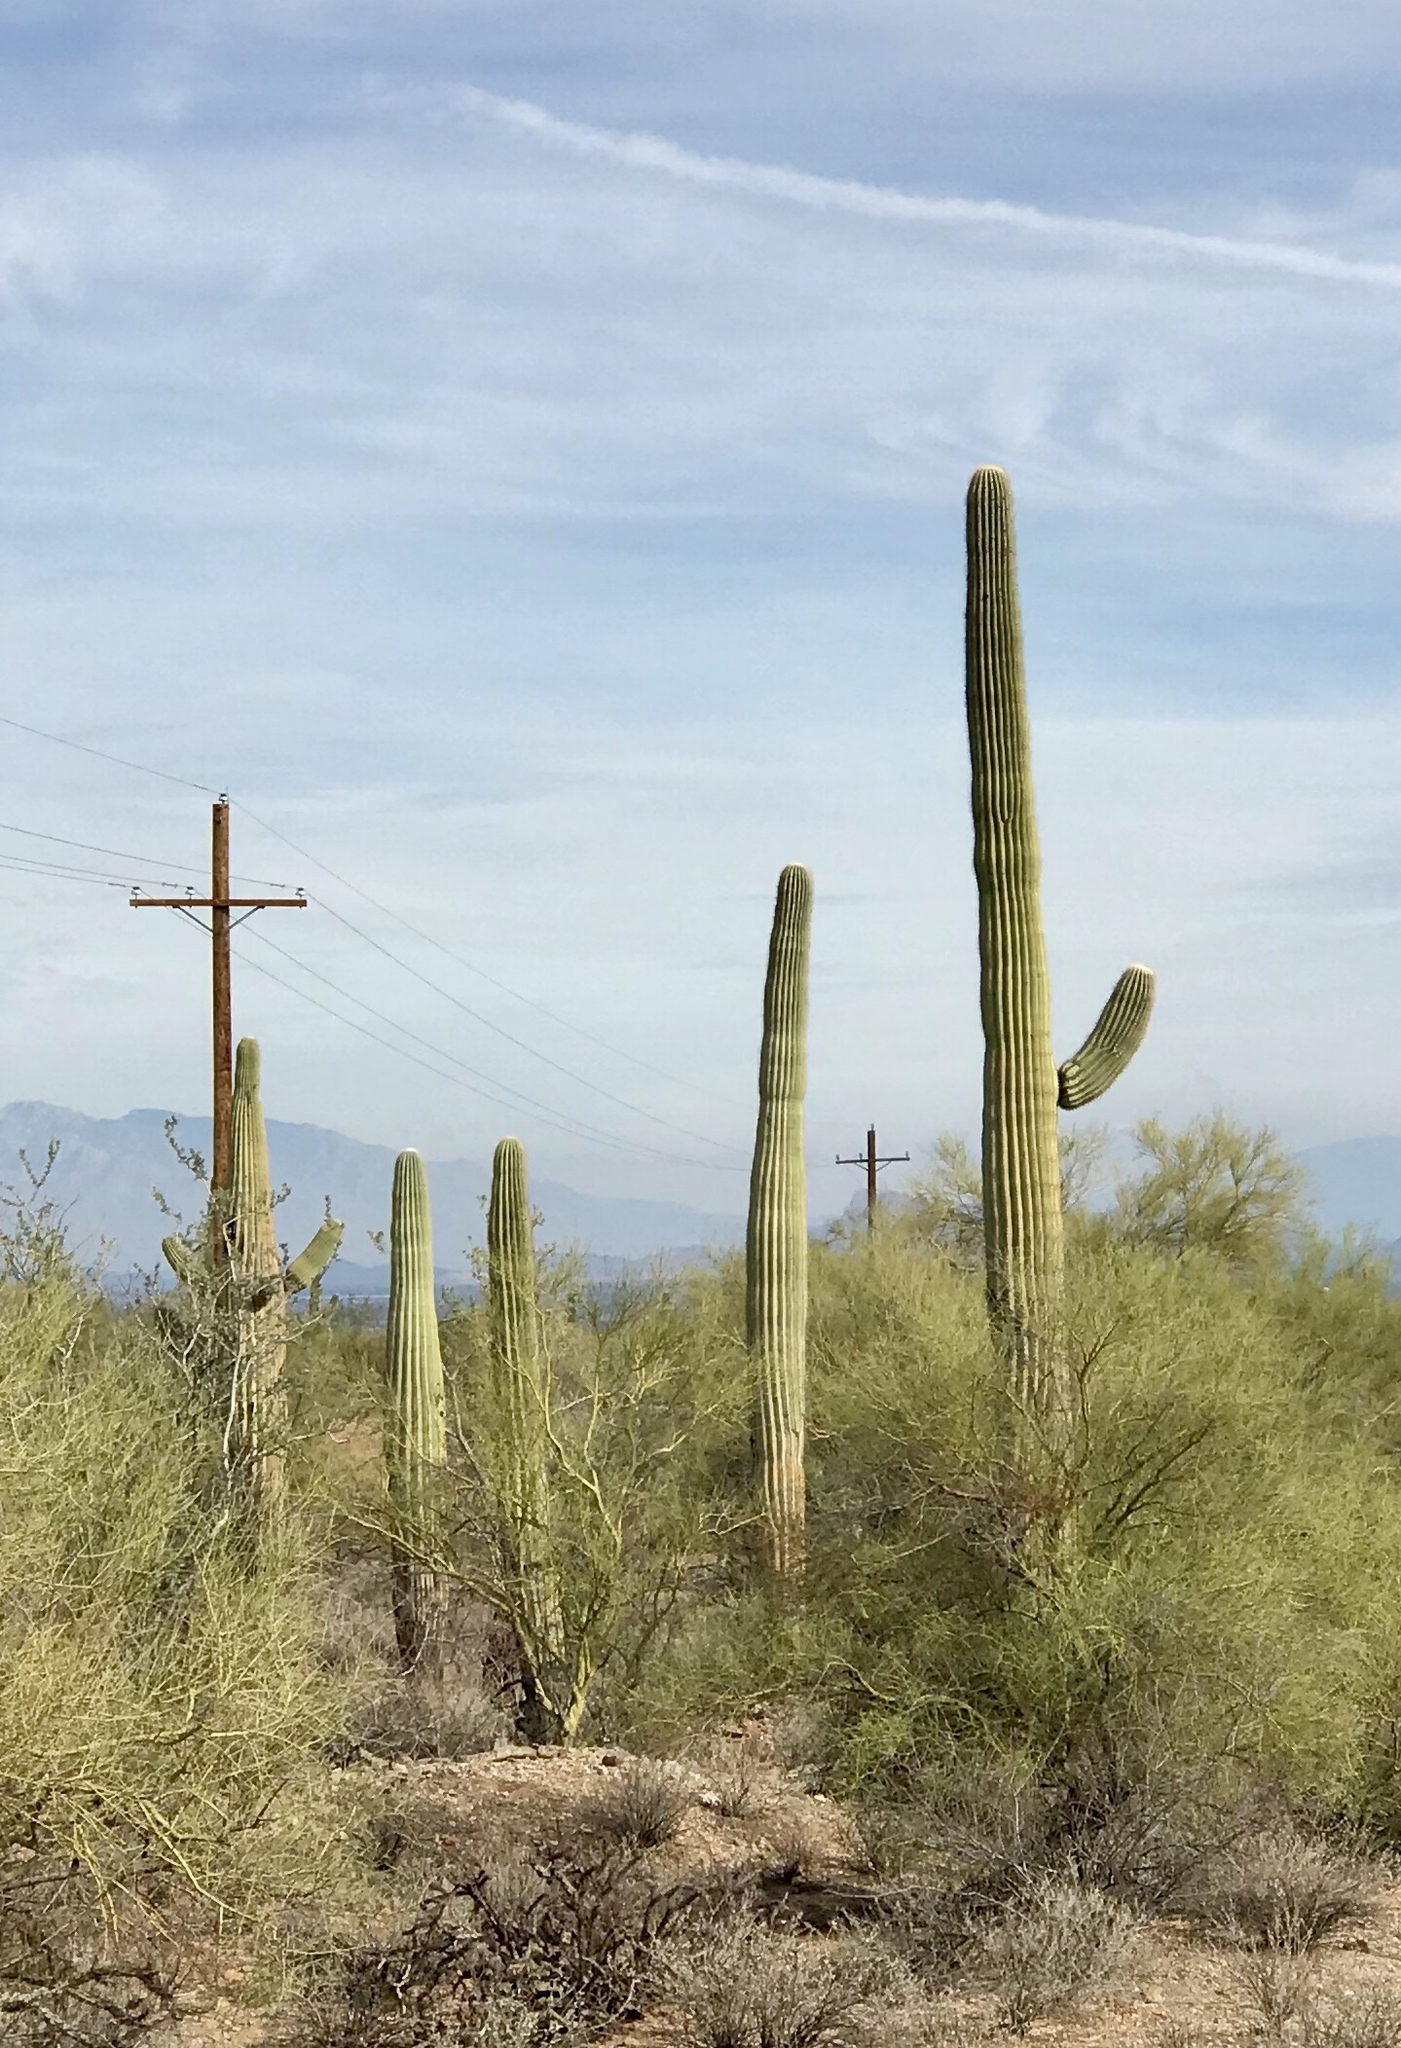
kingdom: Plantae
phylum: Tracheophyta
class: Magnoliopsida
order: Caryophyllales
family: Cactaceae
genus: Carnegiea
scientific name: Carnegiea gigantea
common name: Saguaro
